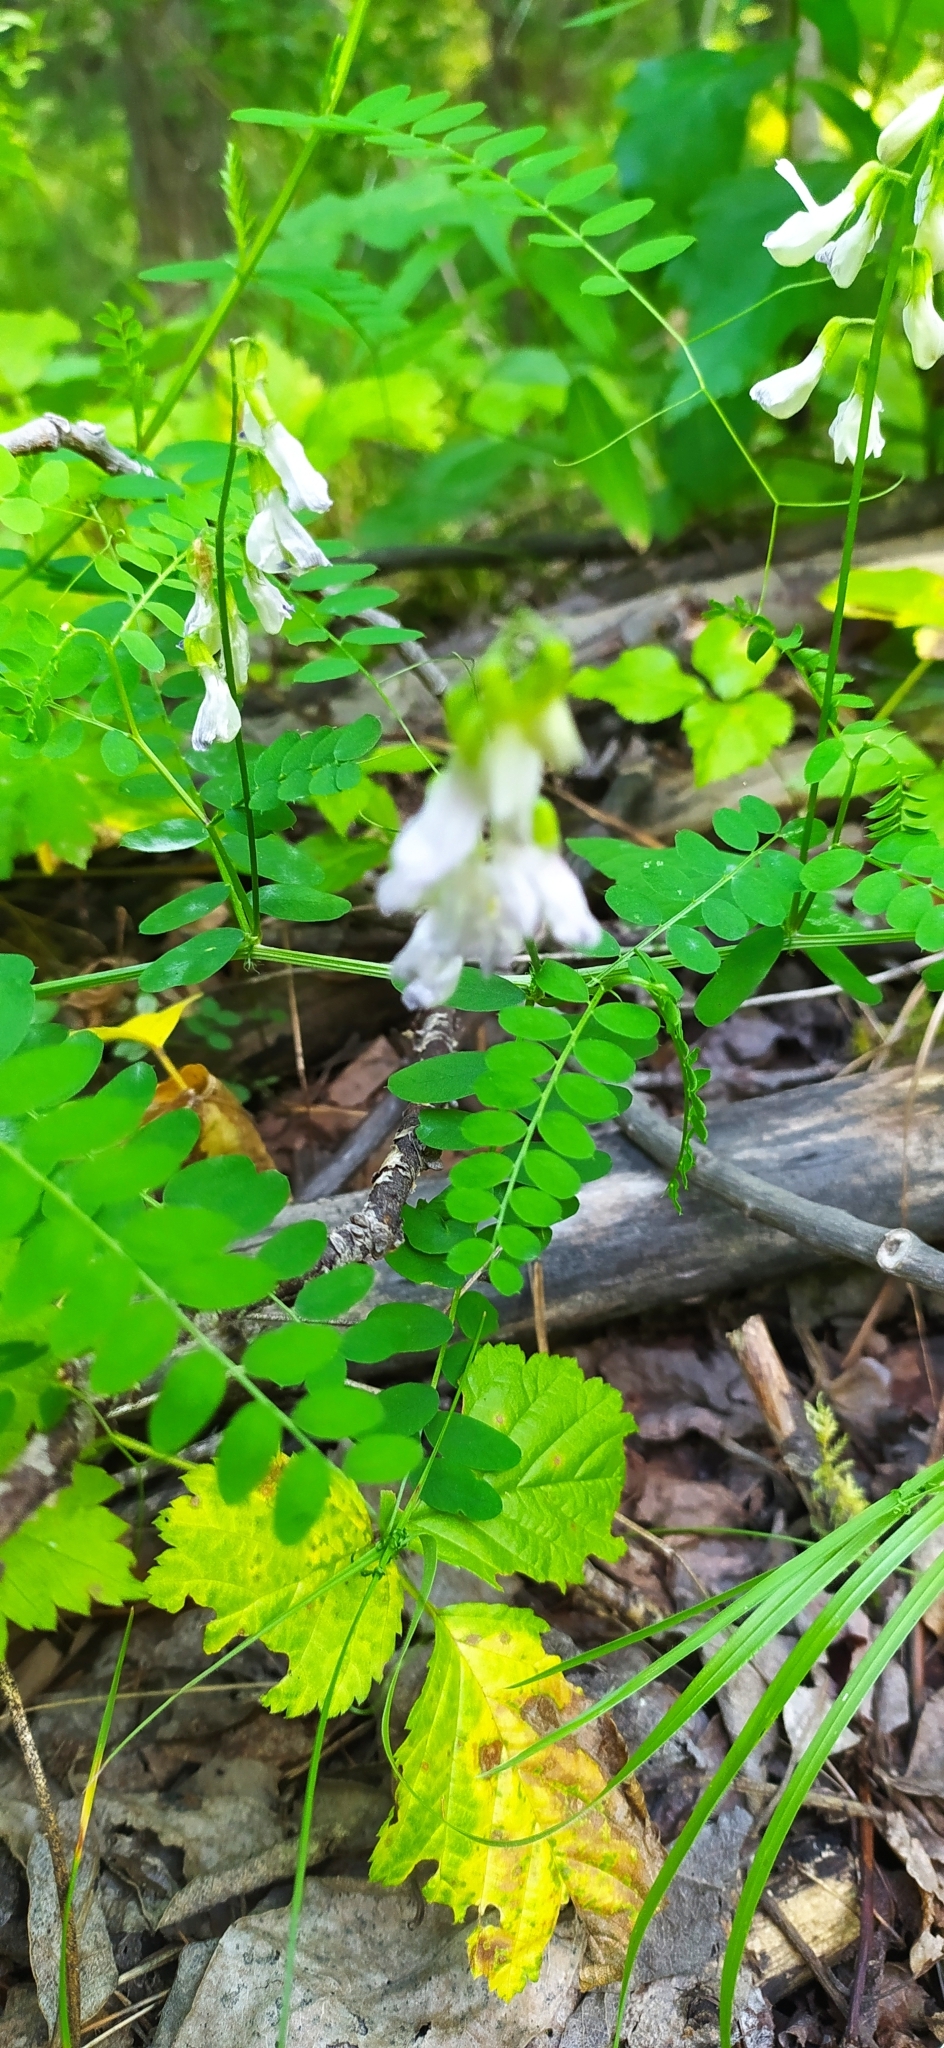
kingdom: Plantae
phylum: Tracheophyta
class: Magnoliopsida
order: Fabales
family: Fabaceae
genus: Vicia
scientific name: Vicia sylvatica
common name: Wood vetch
